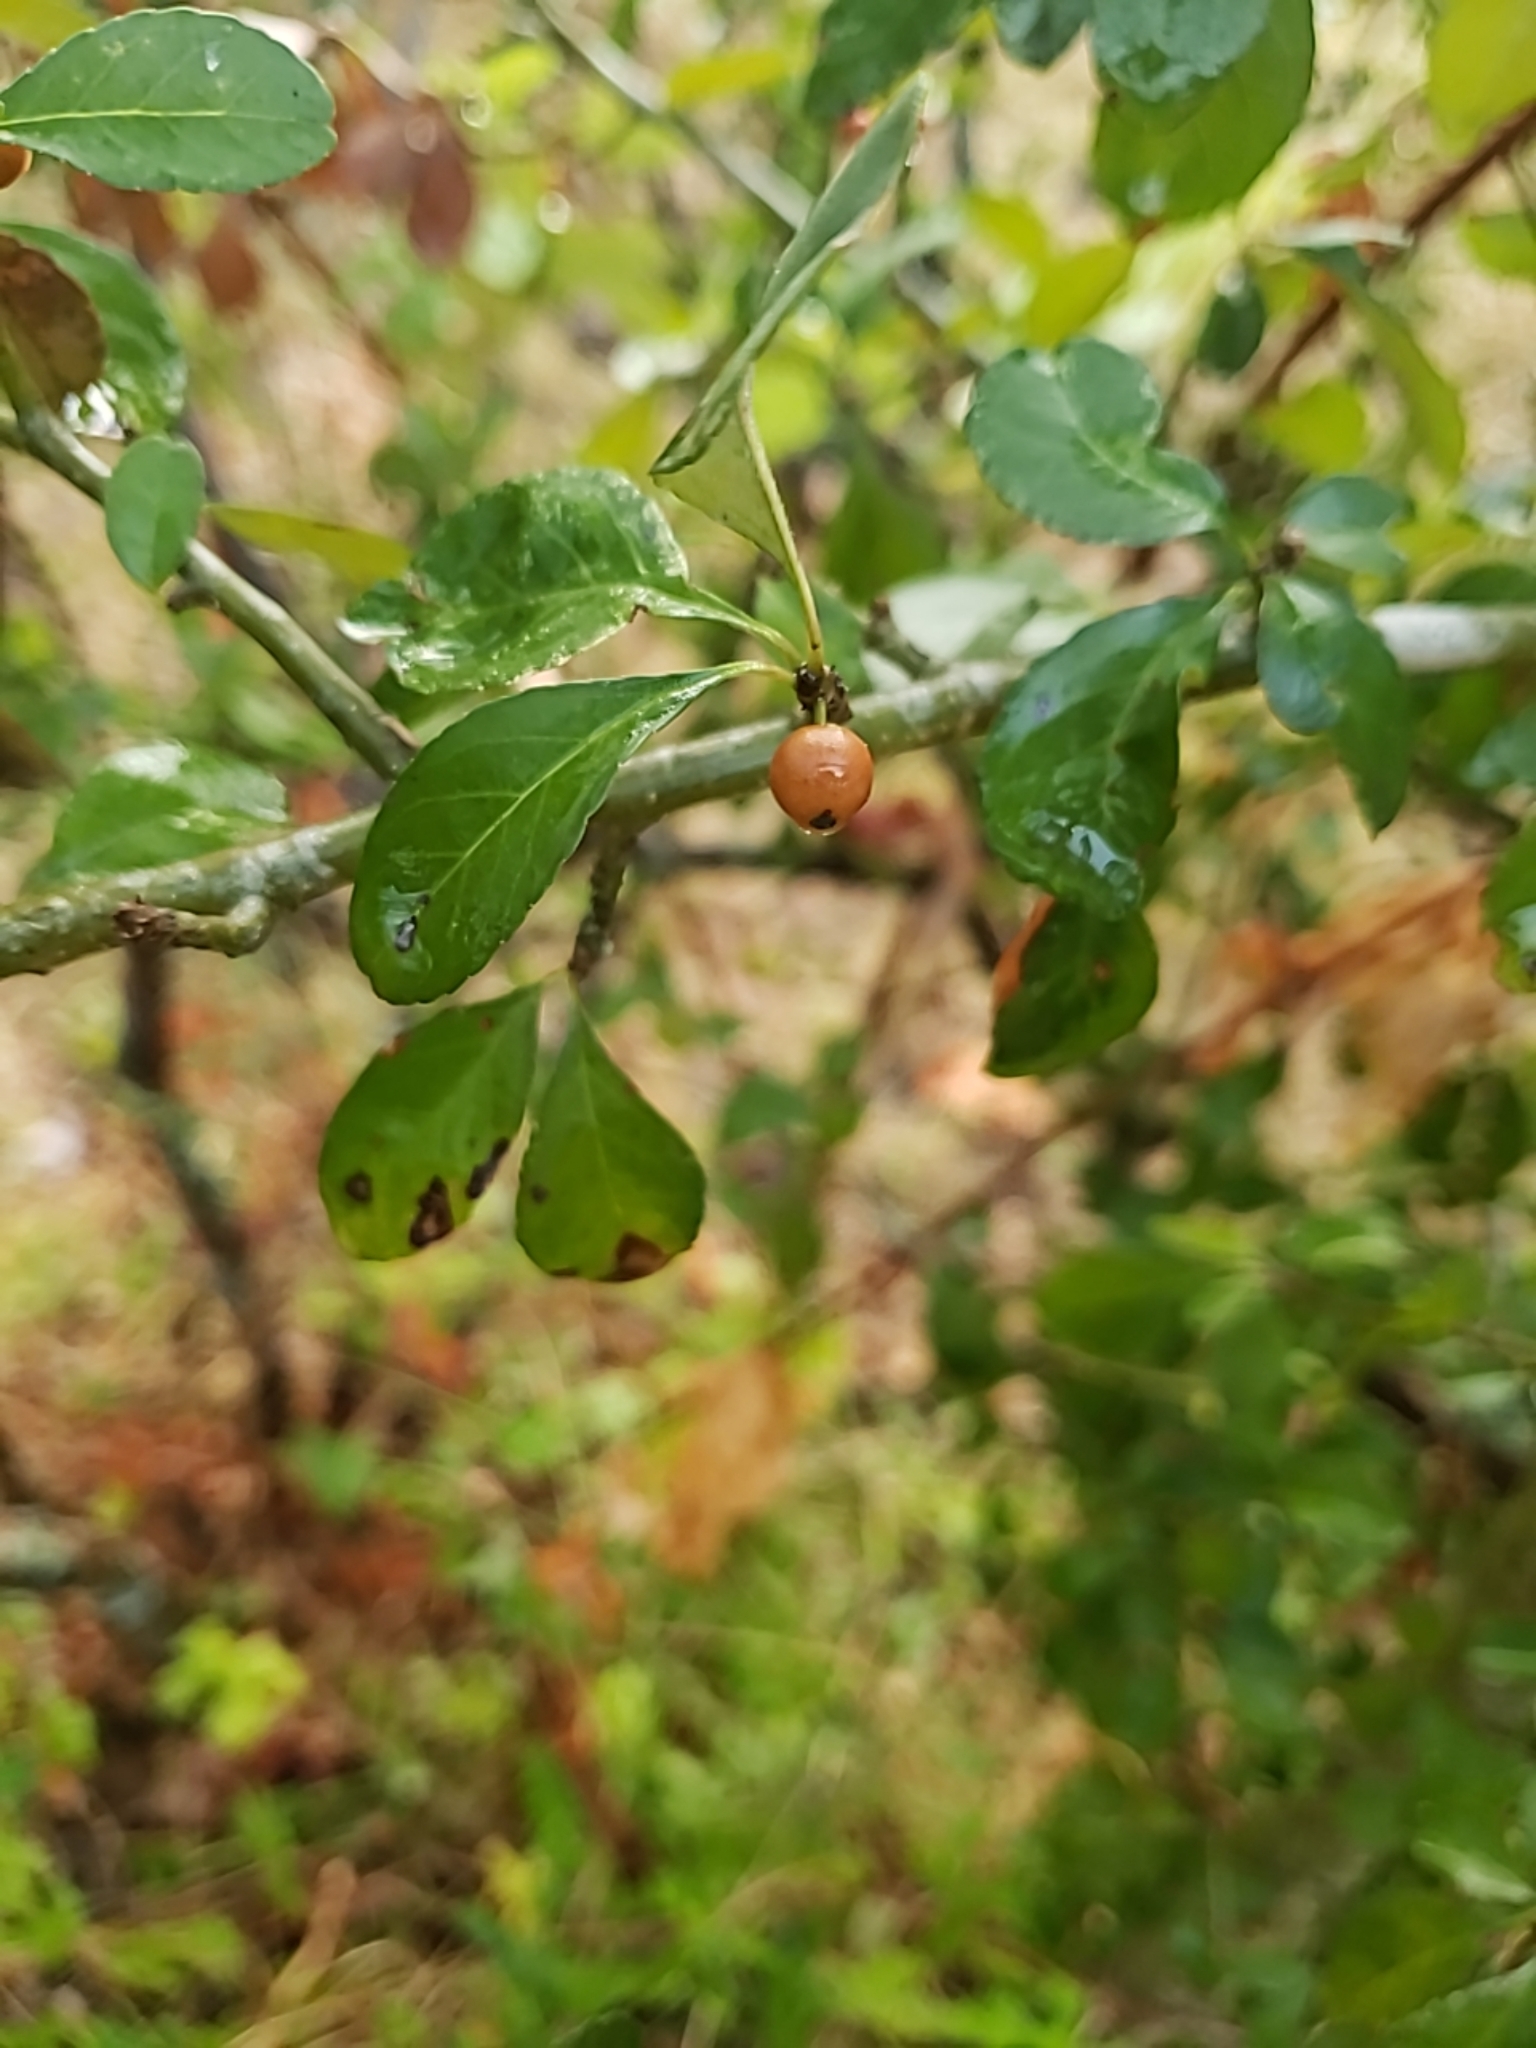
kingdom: Plantae
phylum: Tracheophyta
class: Magnoliopsida
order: Aquifoliales
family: Aquifoliaceae
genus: Ilex
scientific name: Ilex decidua
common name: Possum-haw
